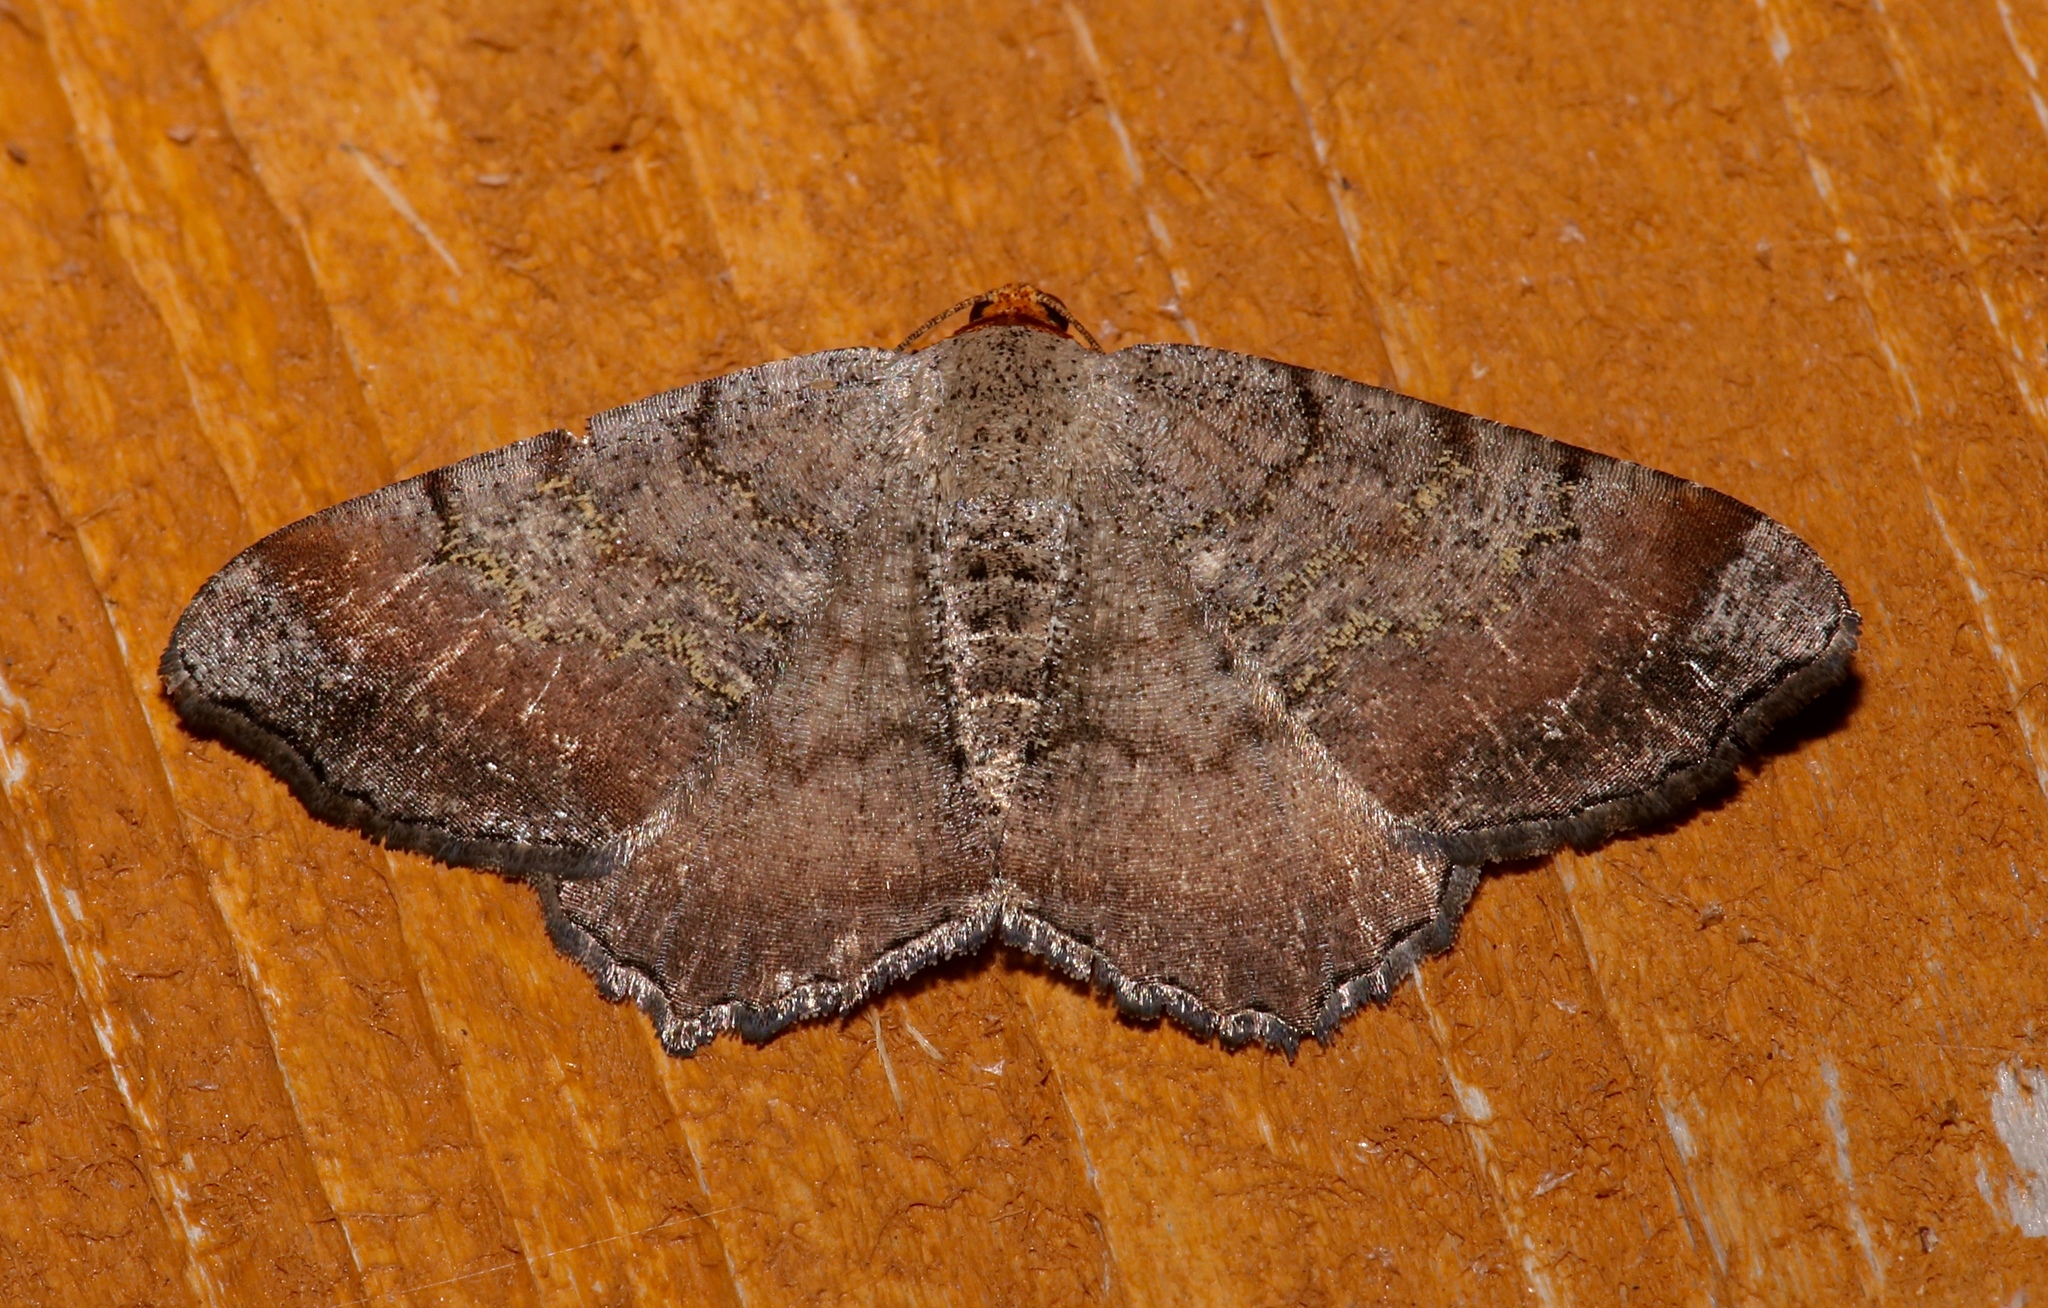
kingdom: Animalia
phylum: Arthropoda
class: Insecta
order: Lepidoptera
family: Geometridae
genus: Macaria
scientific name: Macaria distribuaria
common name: Southern chocolate angle
